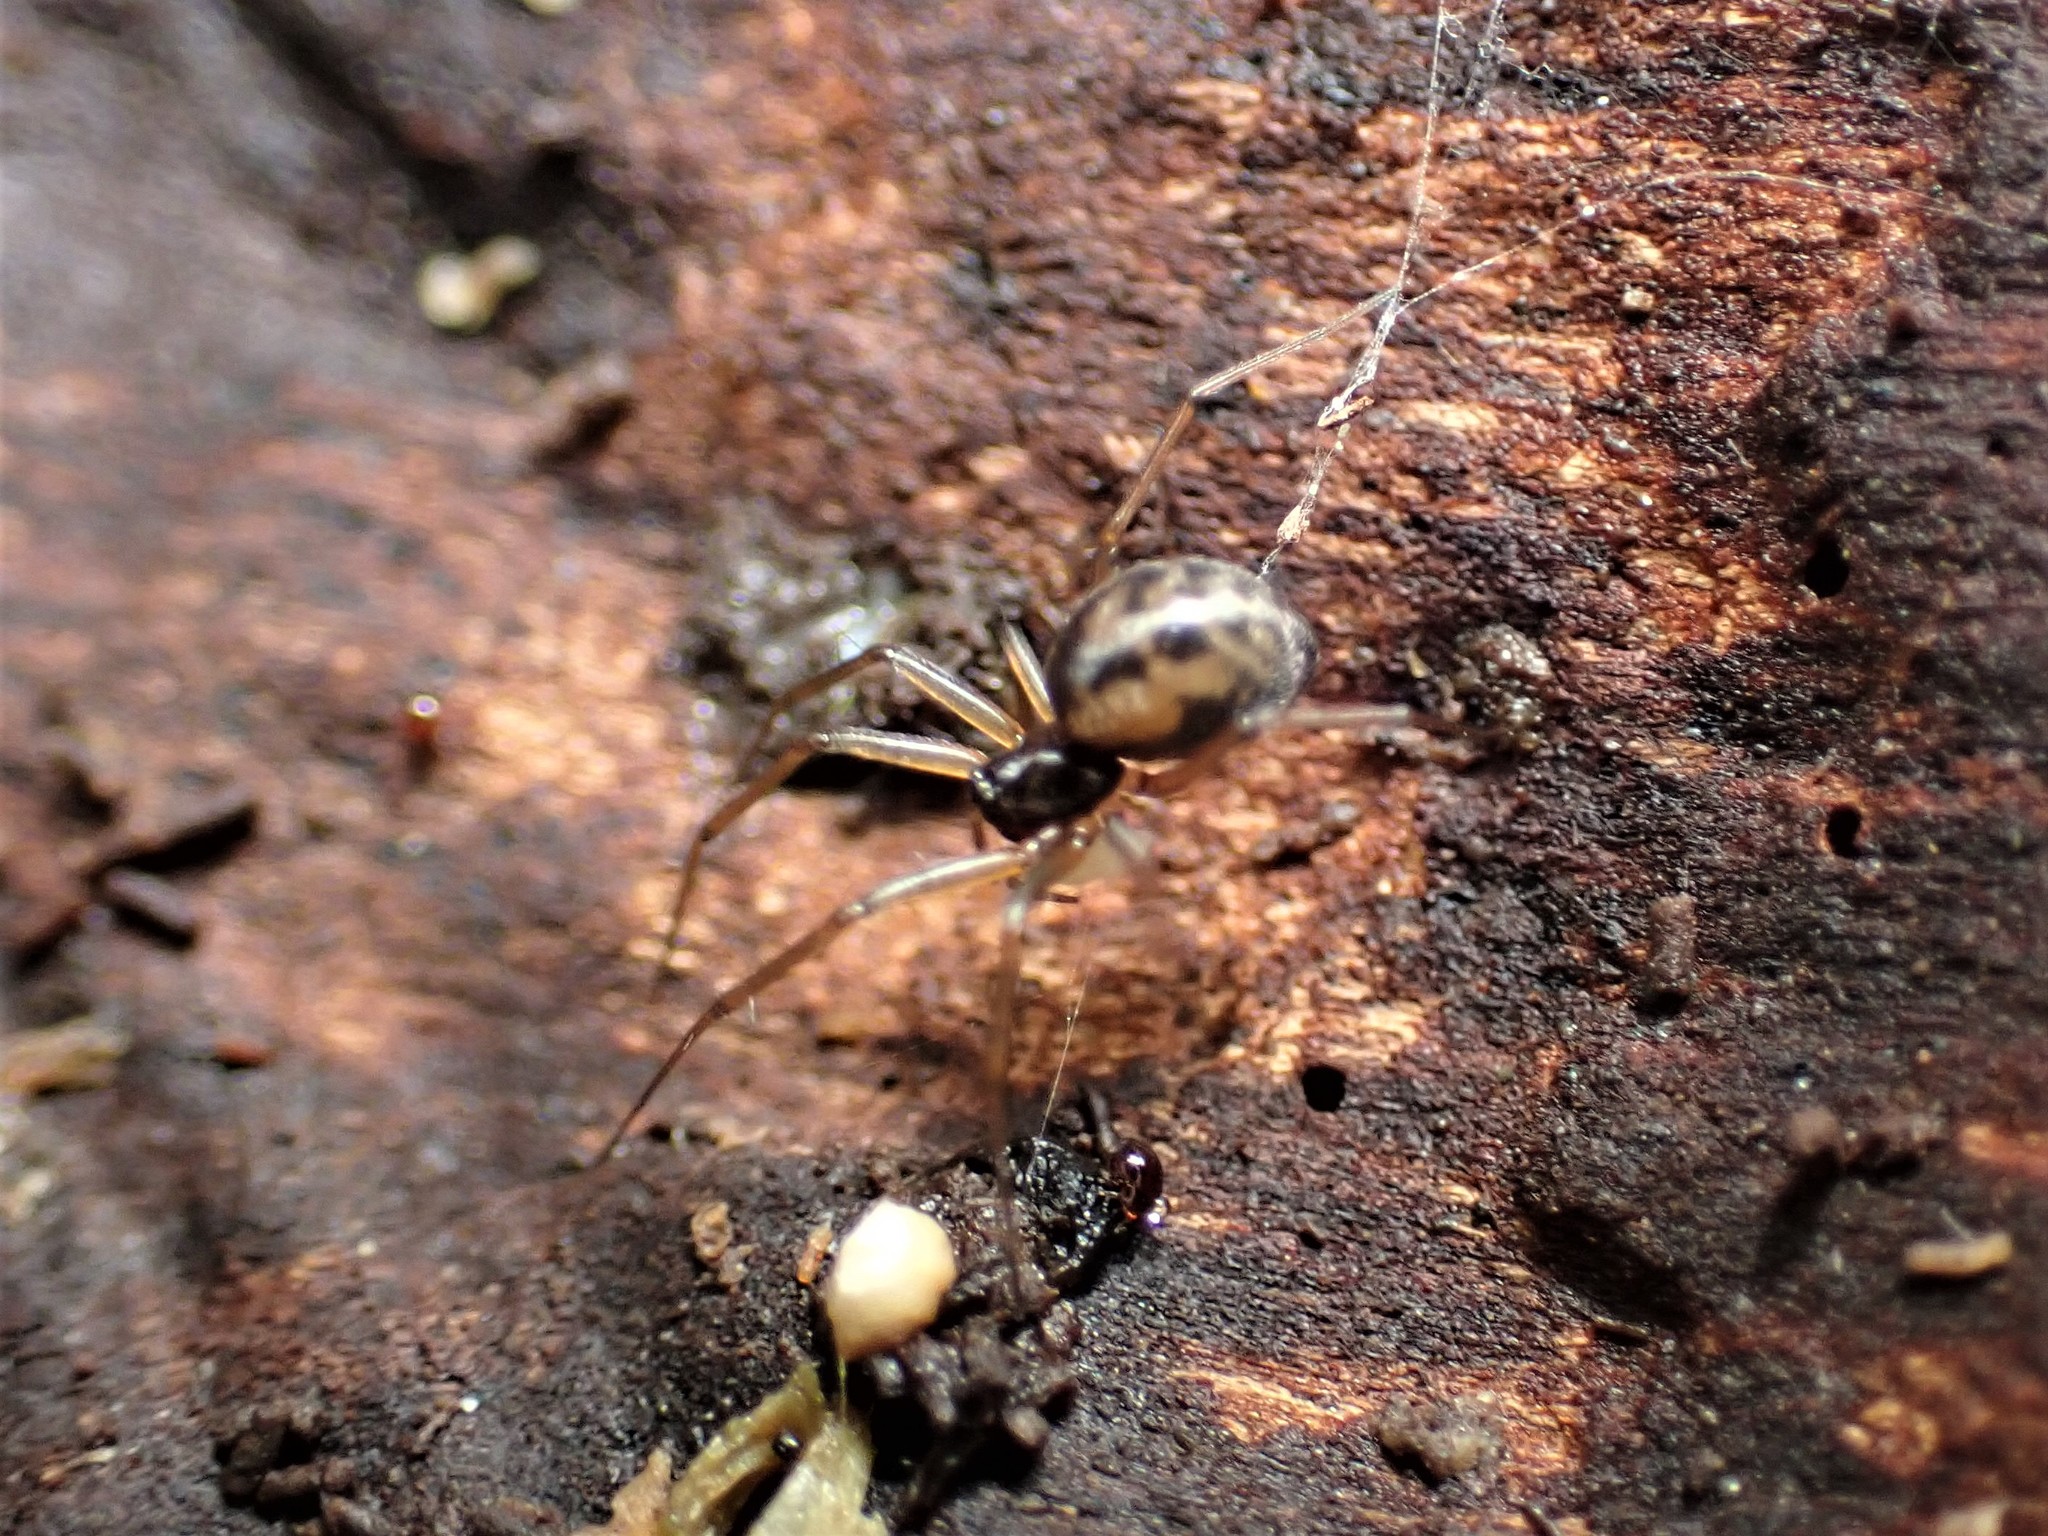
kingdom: Animalia
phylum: Arthropoda
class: Arachnida
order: Araneae
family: Linyphiidae
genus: Tenuiphantes
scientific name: Tenuiphantes tenuis
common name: Dwarf weaver
